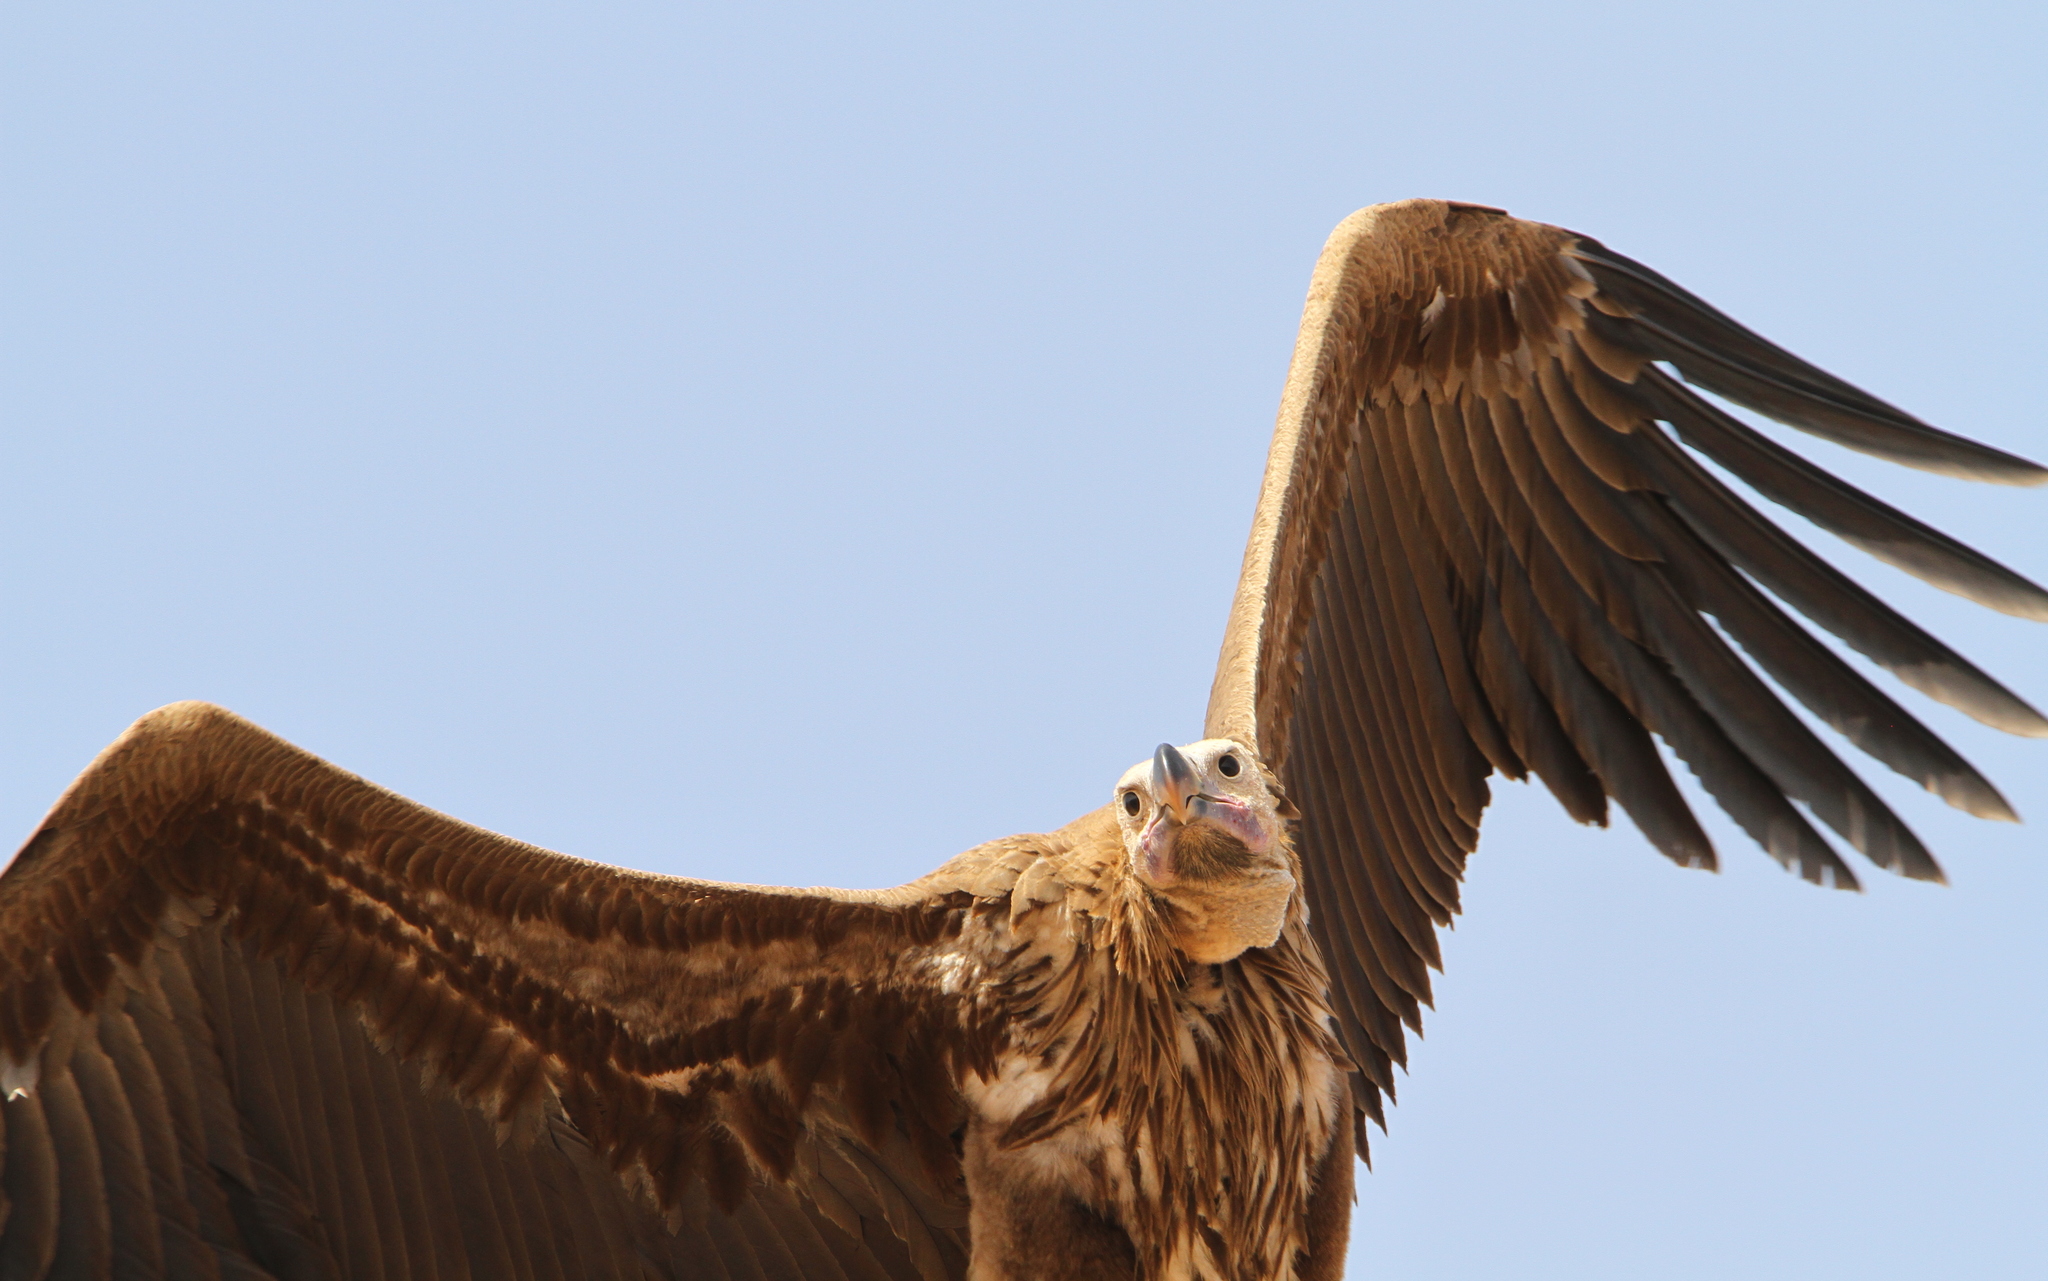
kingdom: Animalia
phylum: Chordata
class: Aves
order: Accipitriformes
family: Accipitridae
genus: Torgos
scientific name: Torgos tracheliotos
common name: Lappet-faced vulture
